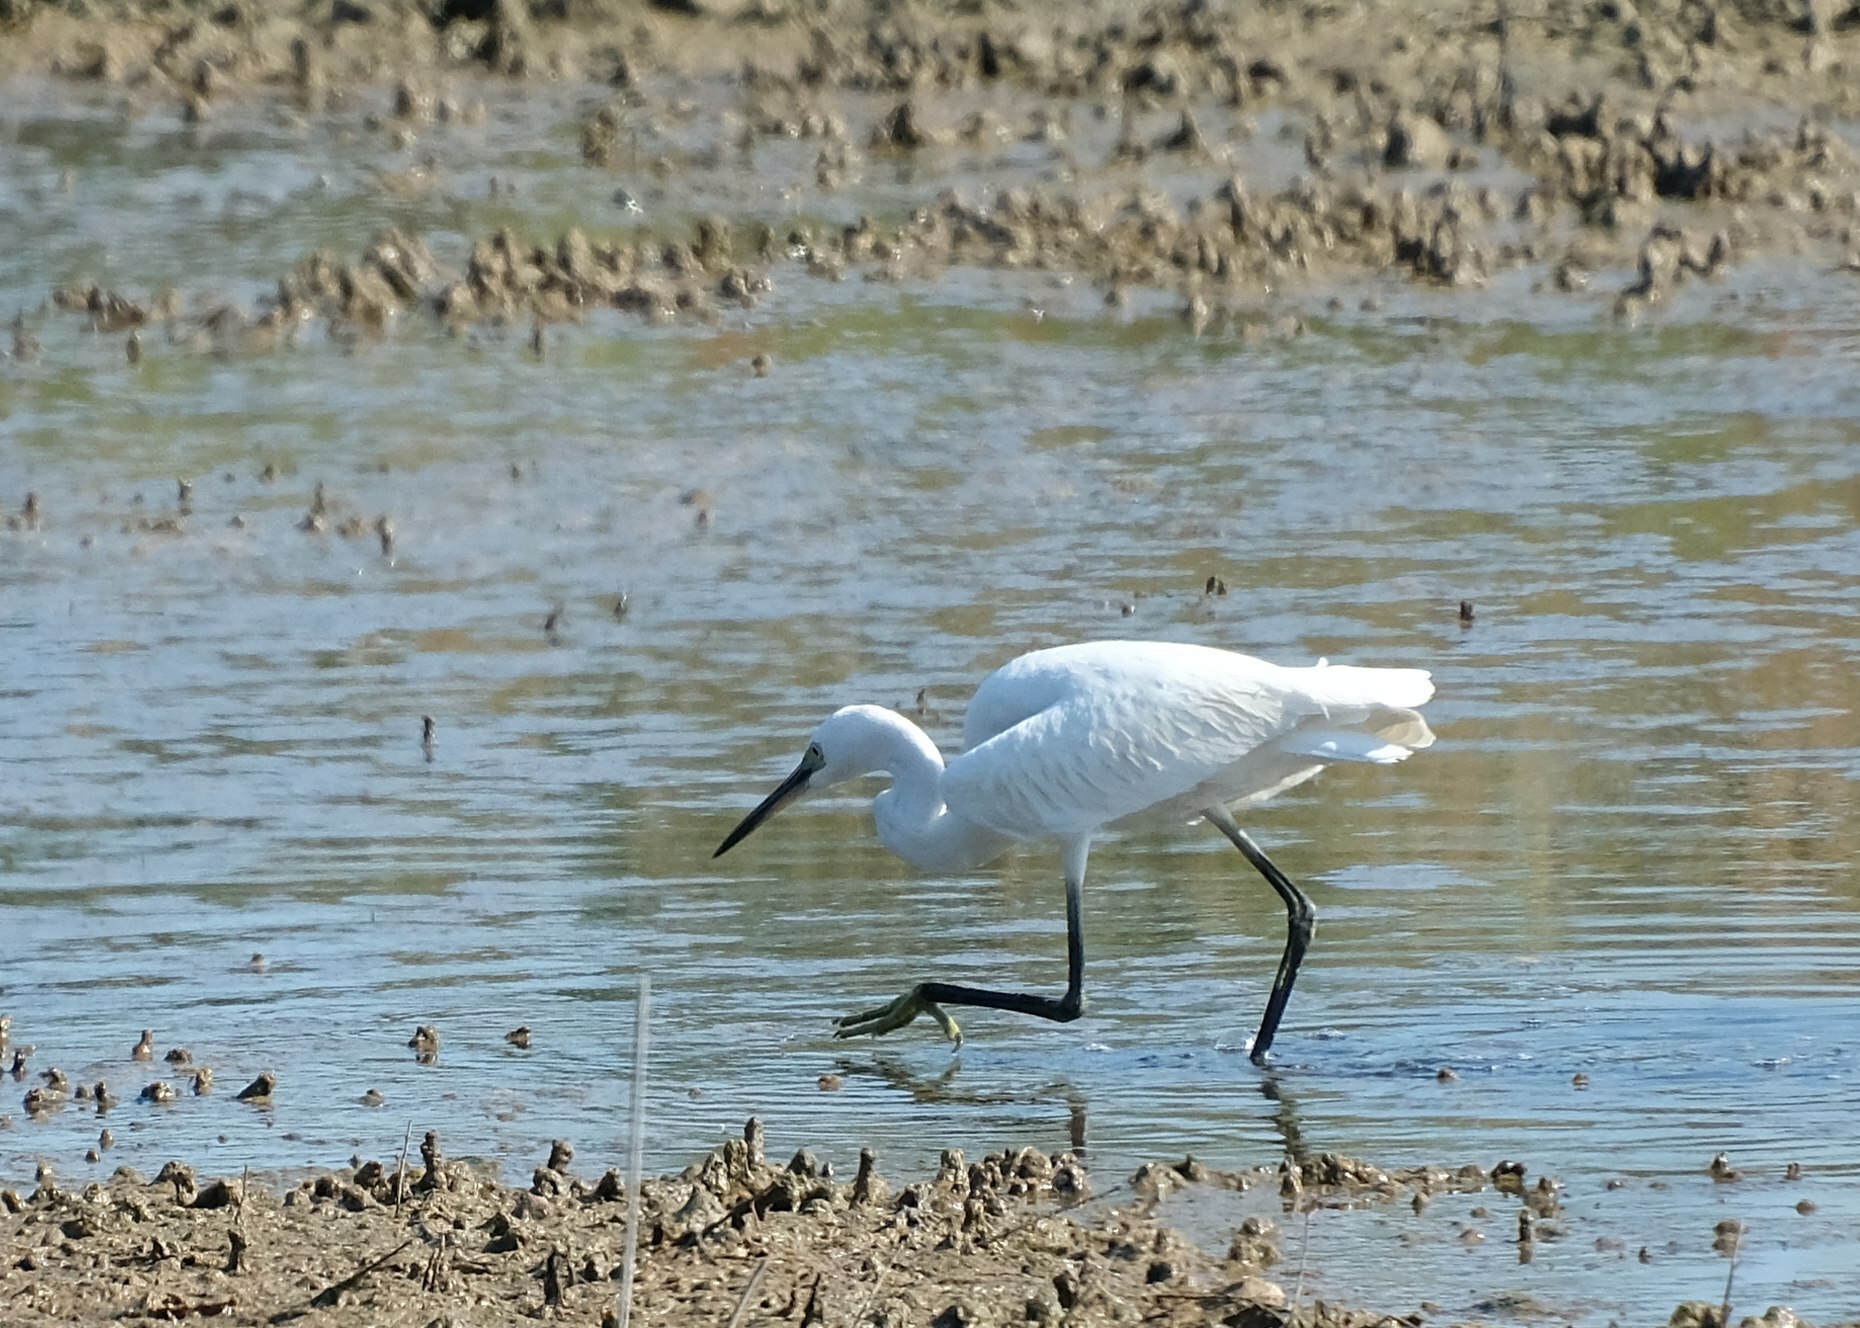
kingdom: Animalia
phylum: Chordata
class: Aves
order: Pelecaniformes
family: Ardeidae
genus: Egretta
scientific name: Egretta garzetta
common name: Little egret
